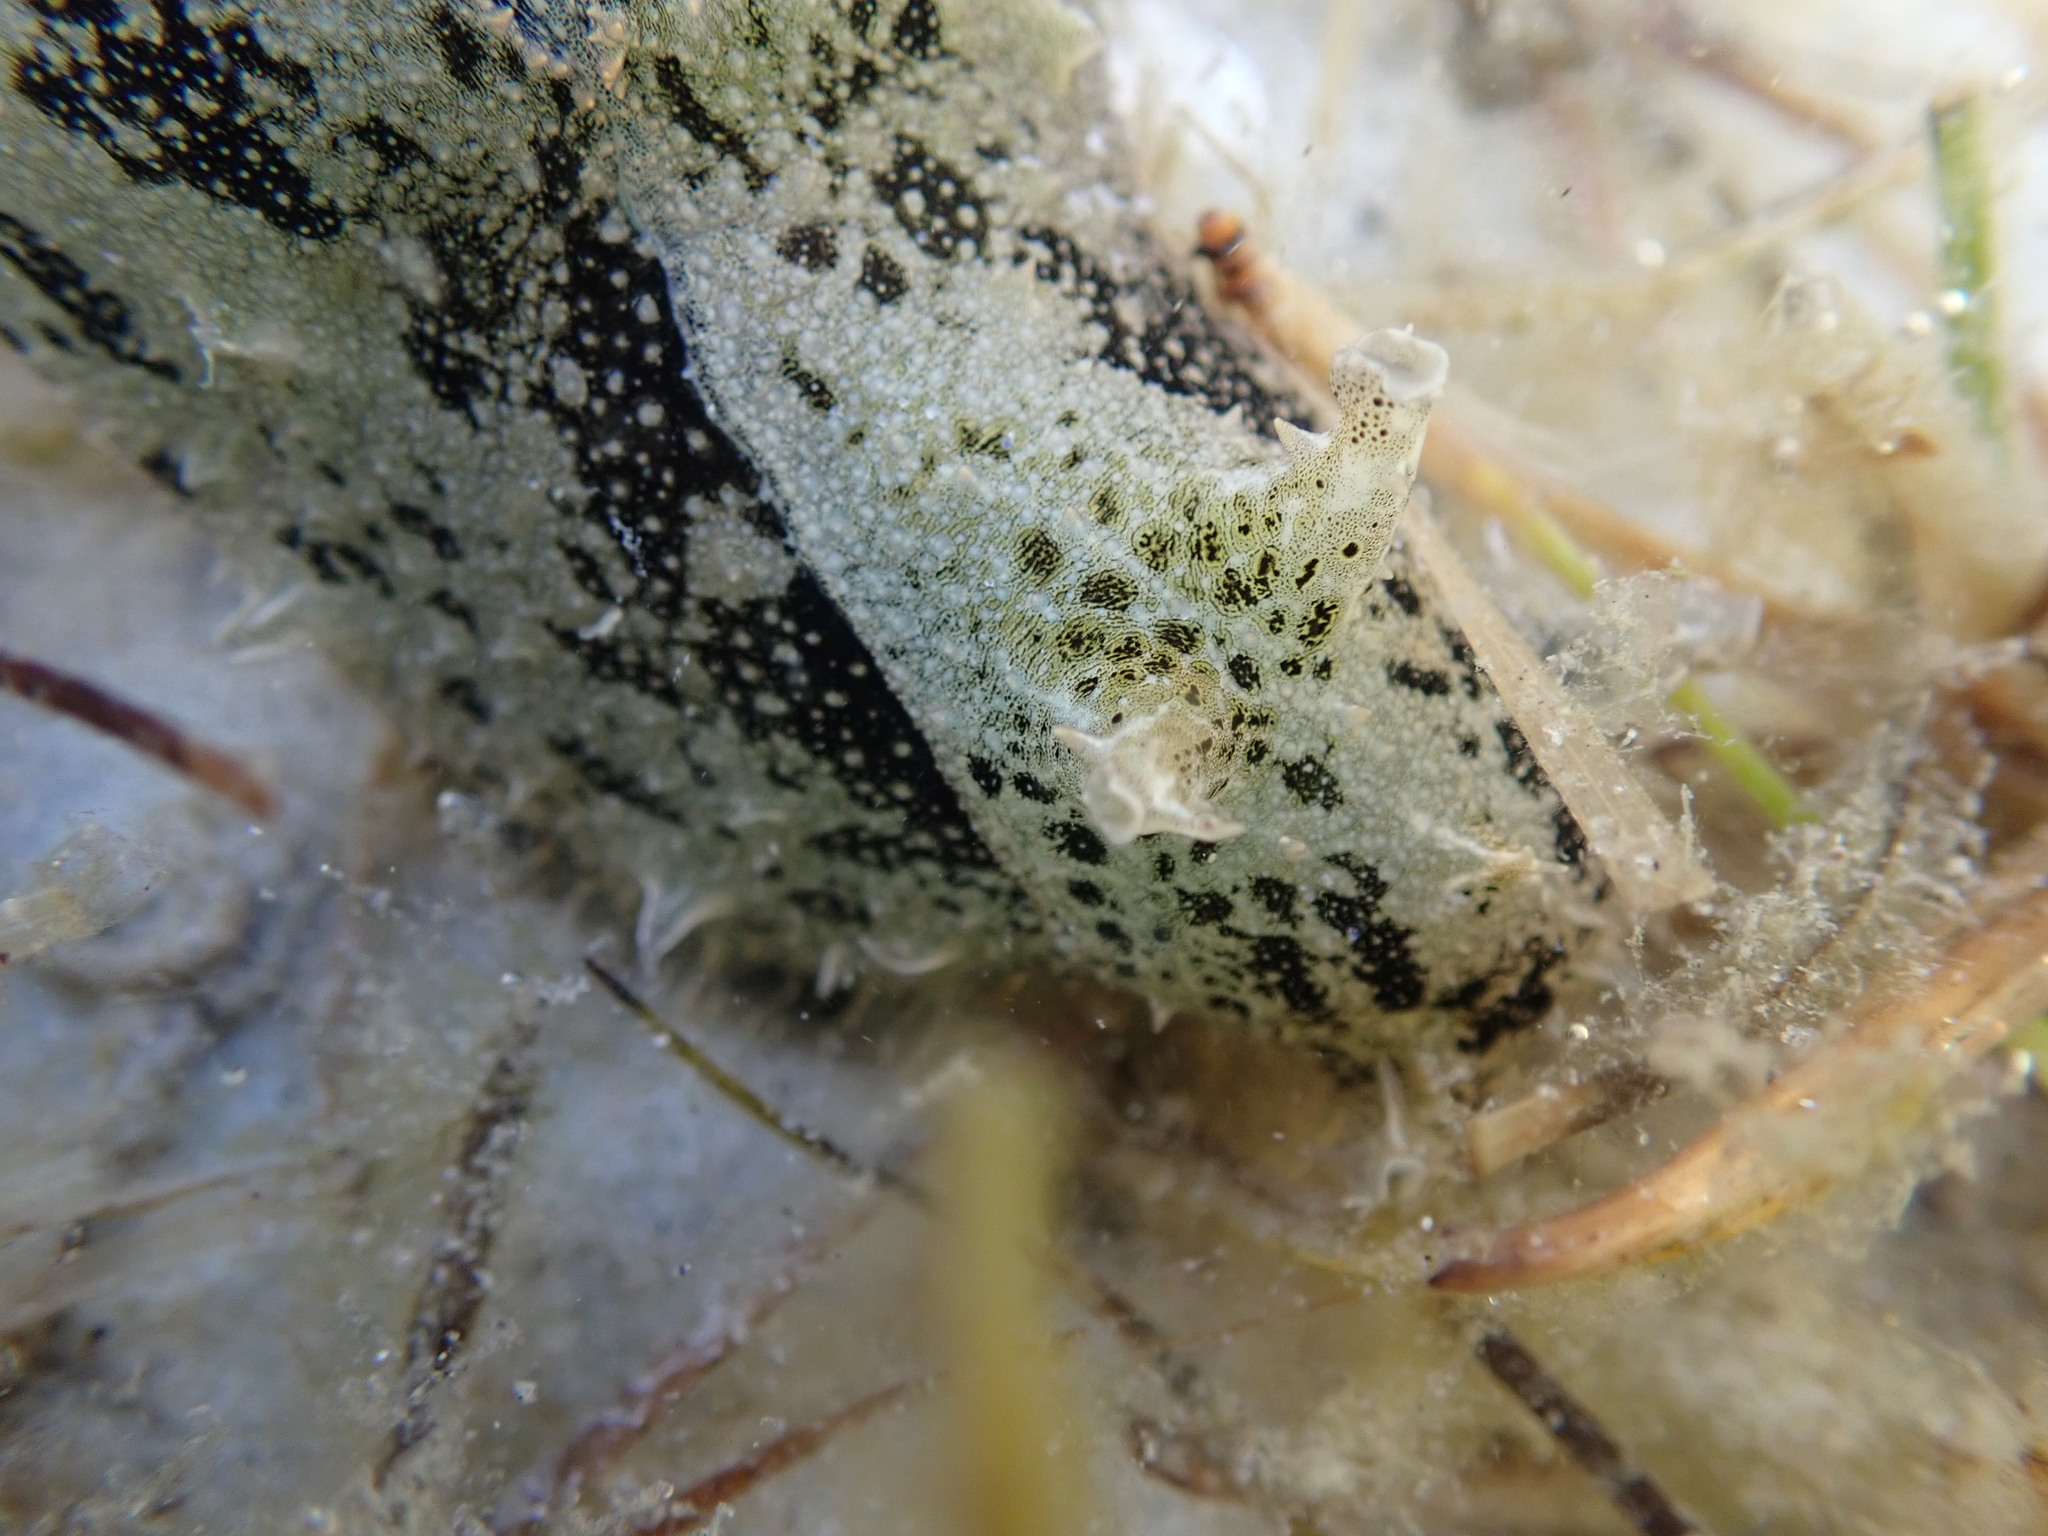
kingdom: Animalia
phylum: Mollusca
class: Gastropoda
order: Aplysiida
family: Aplysiidae
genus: Bursatella
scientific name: Bursatella leachii
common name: Shaggy sea hare
